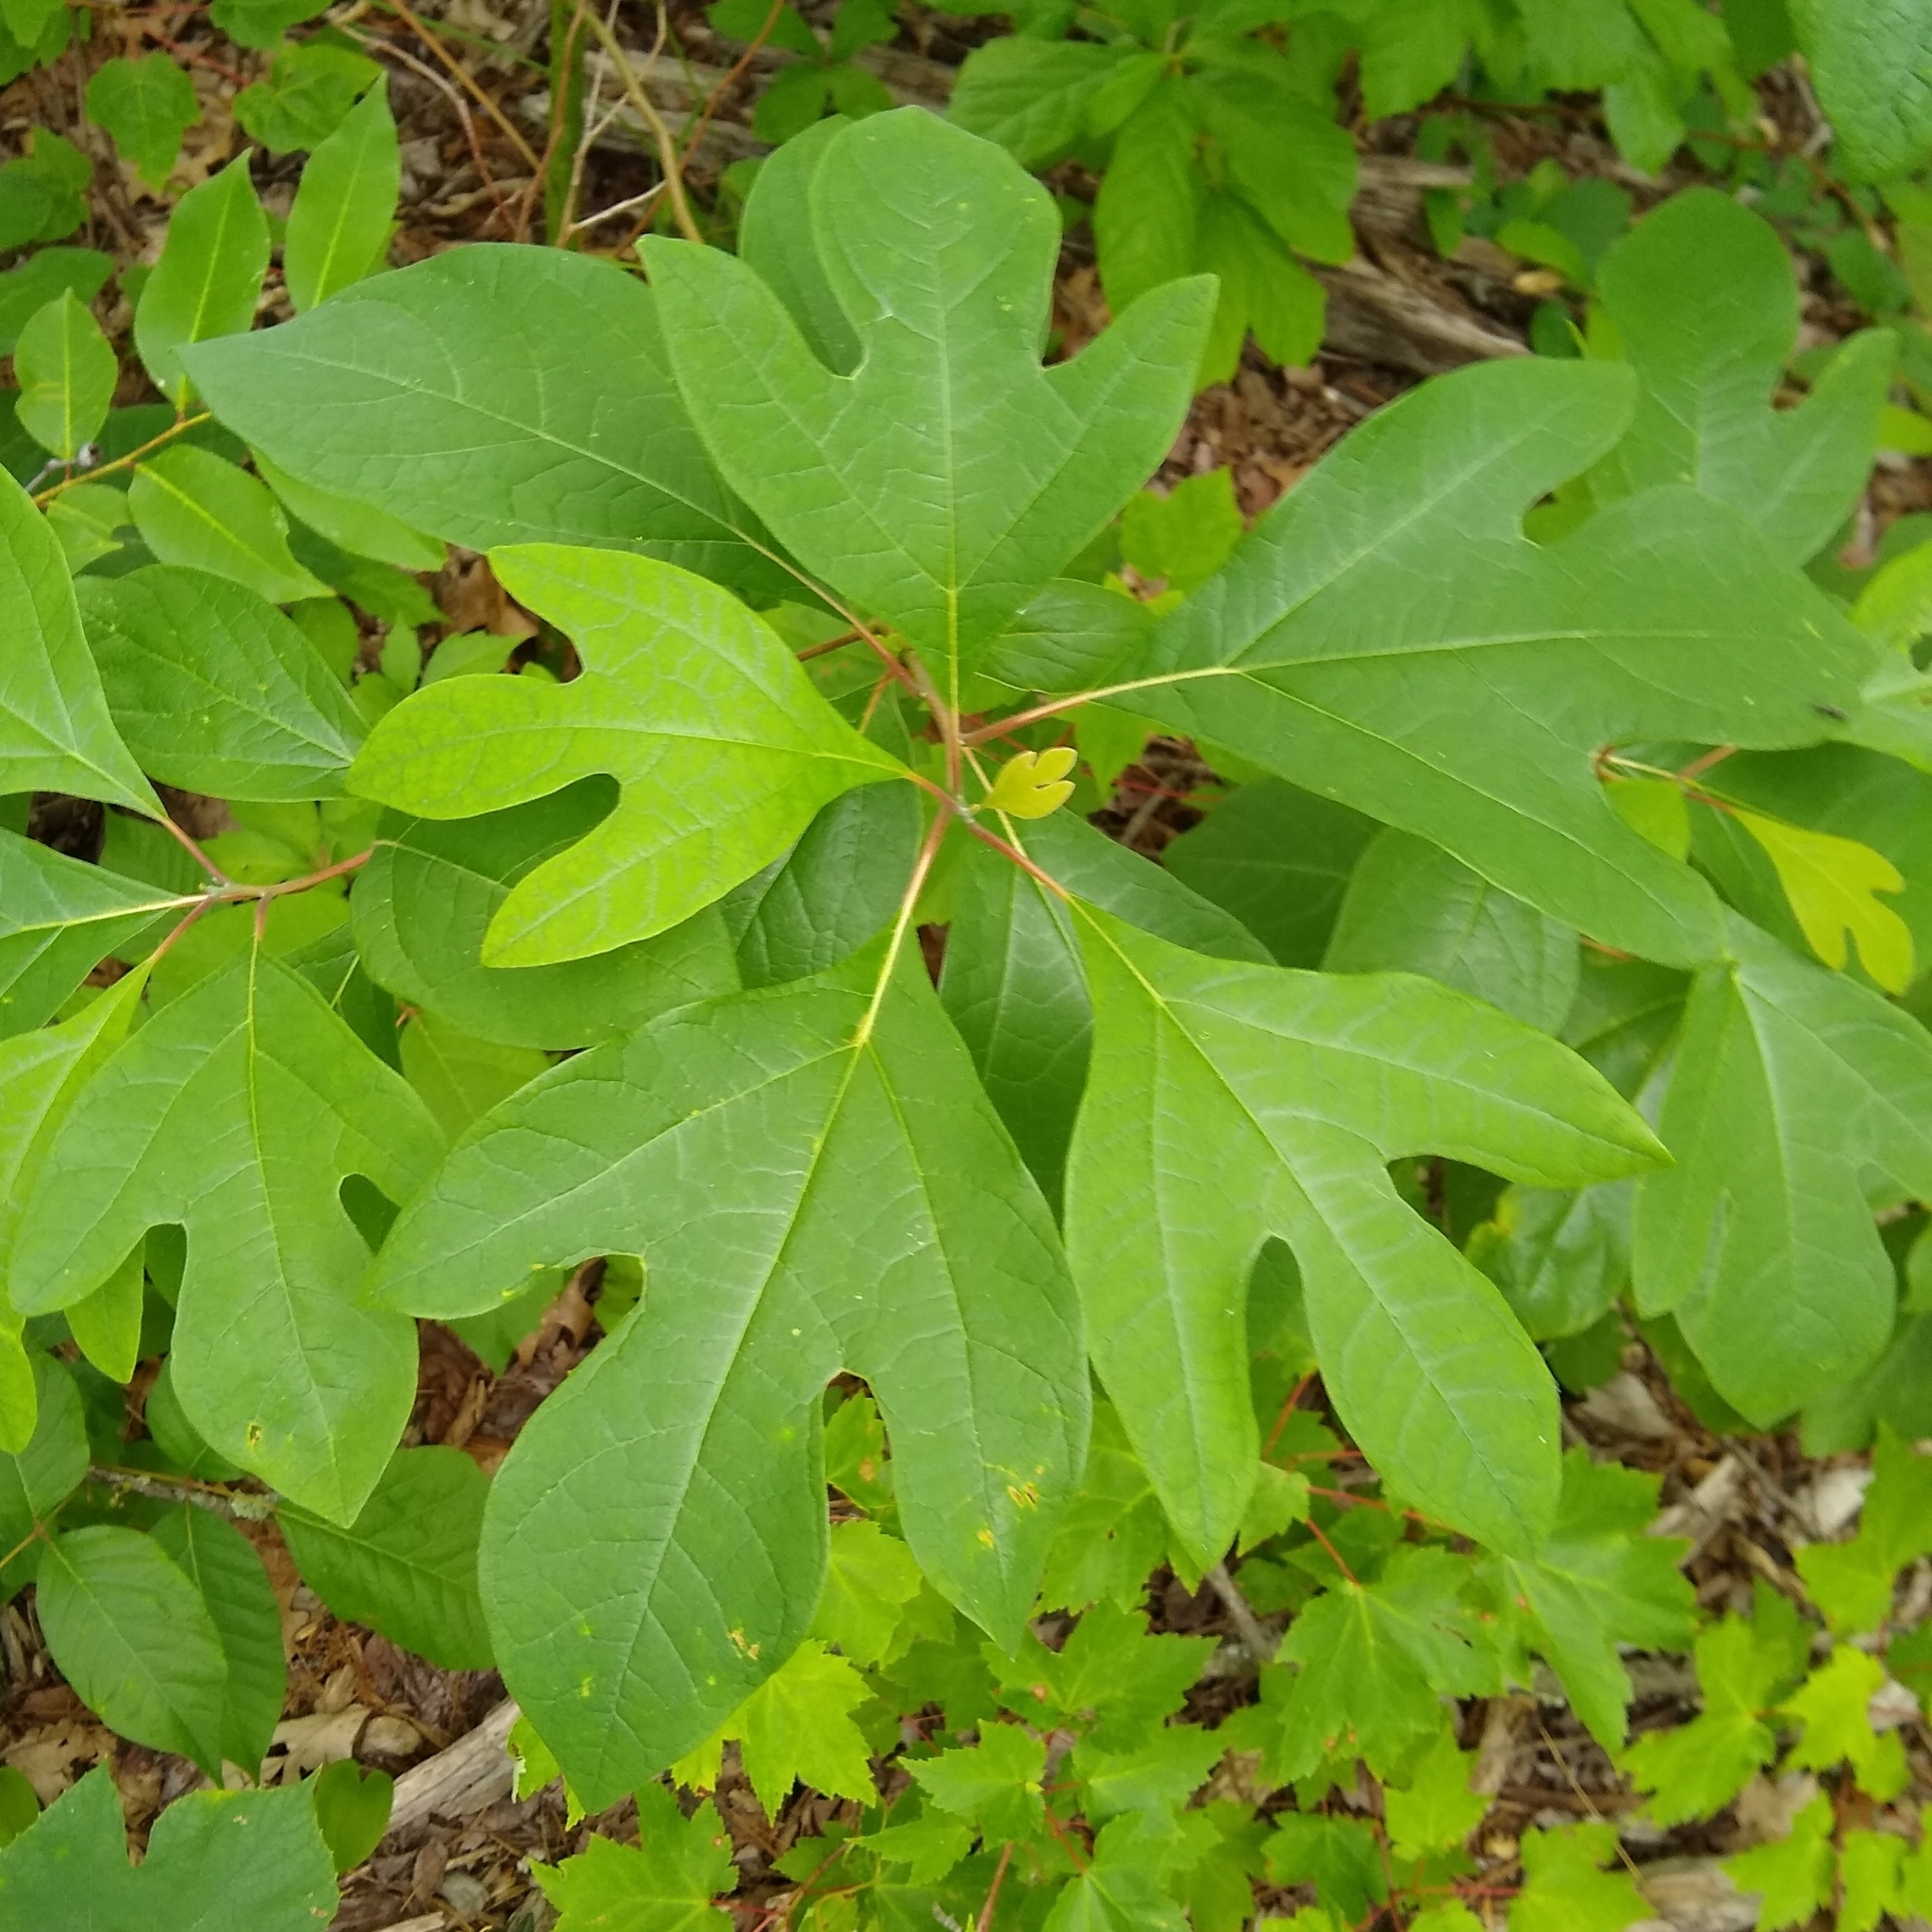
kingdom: Plantae
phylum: Tracheophyta
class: Magnoliopsida
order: Laurales
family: Lauraceae
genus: Sassafras
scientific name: Sassafras albidum
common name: Sassafras
